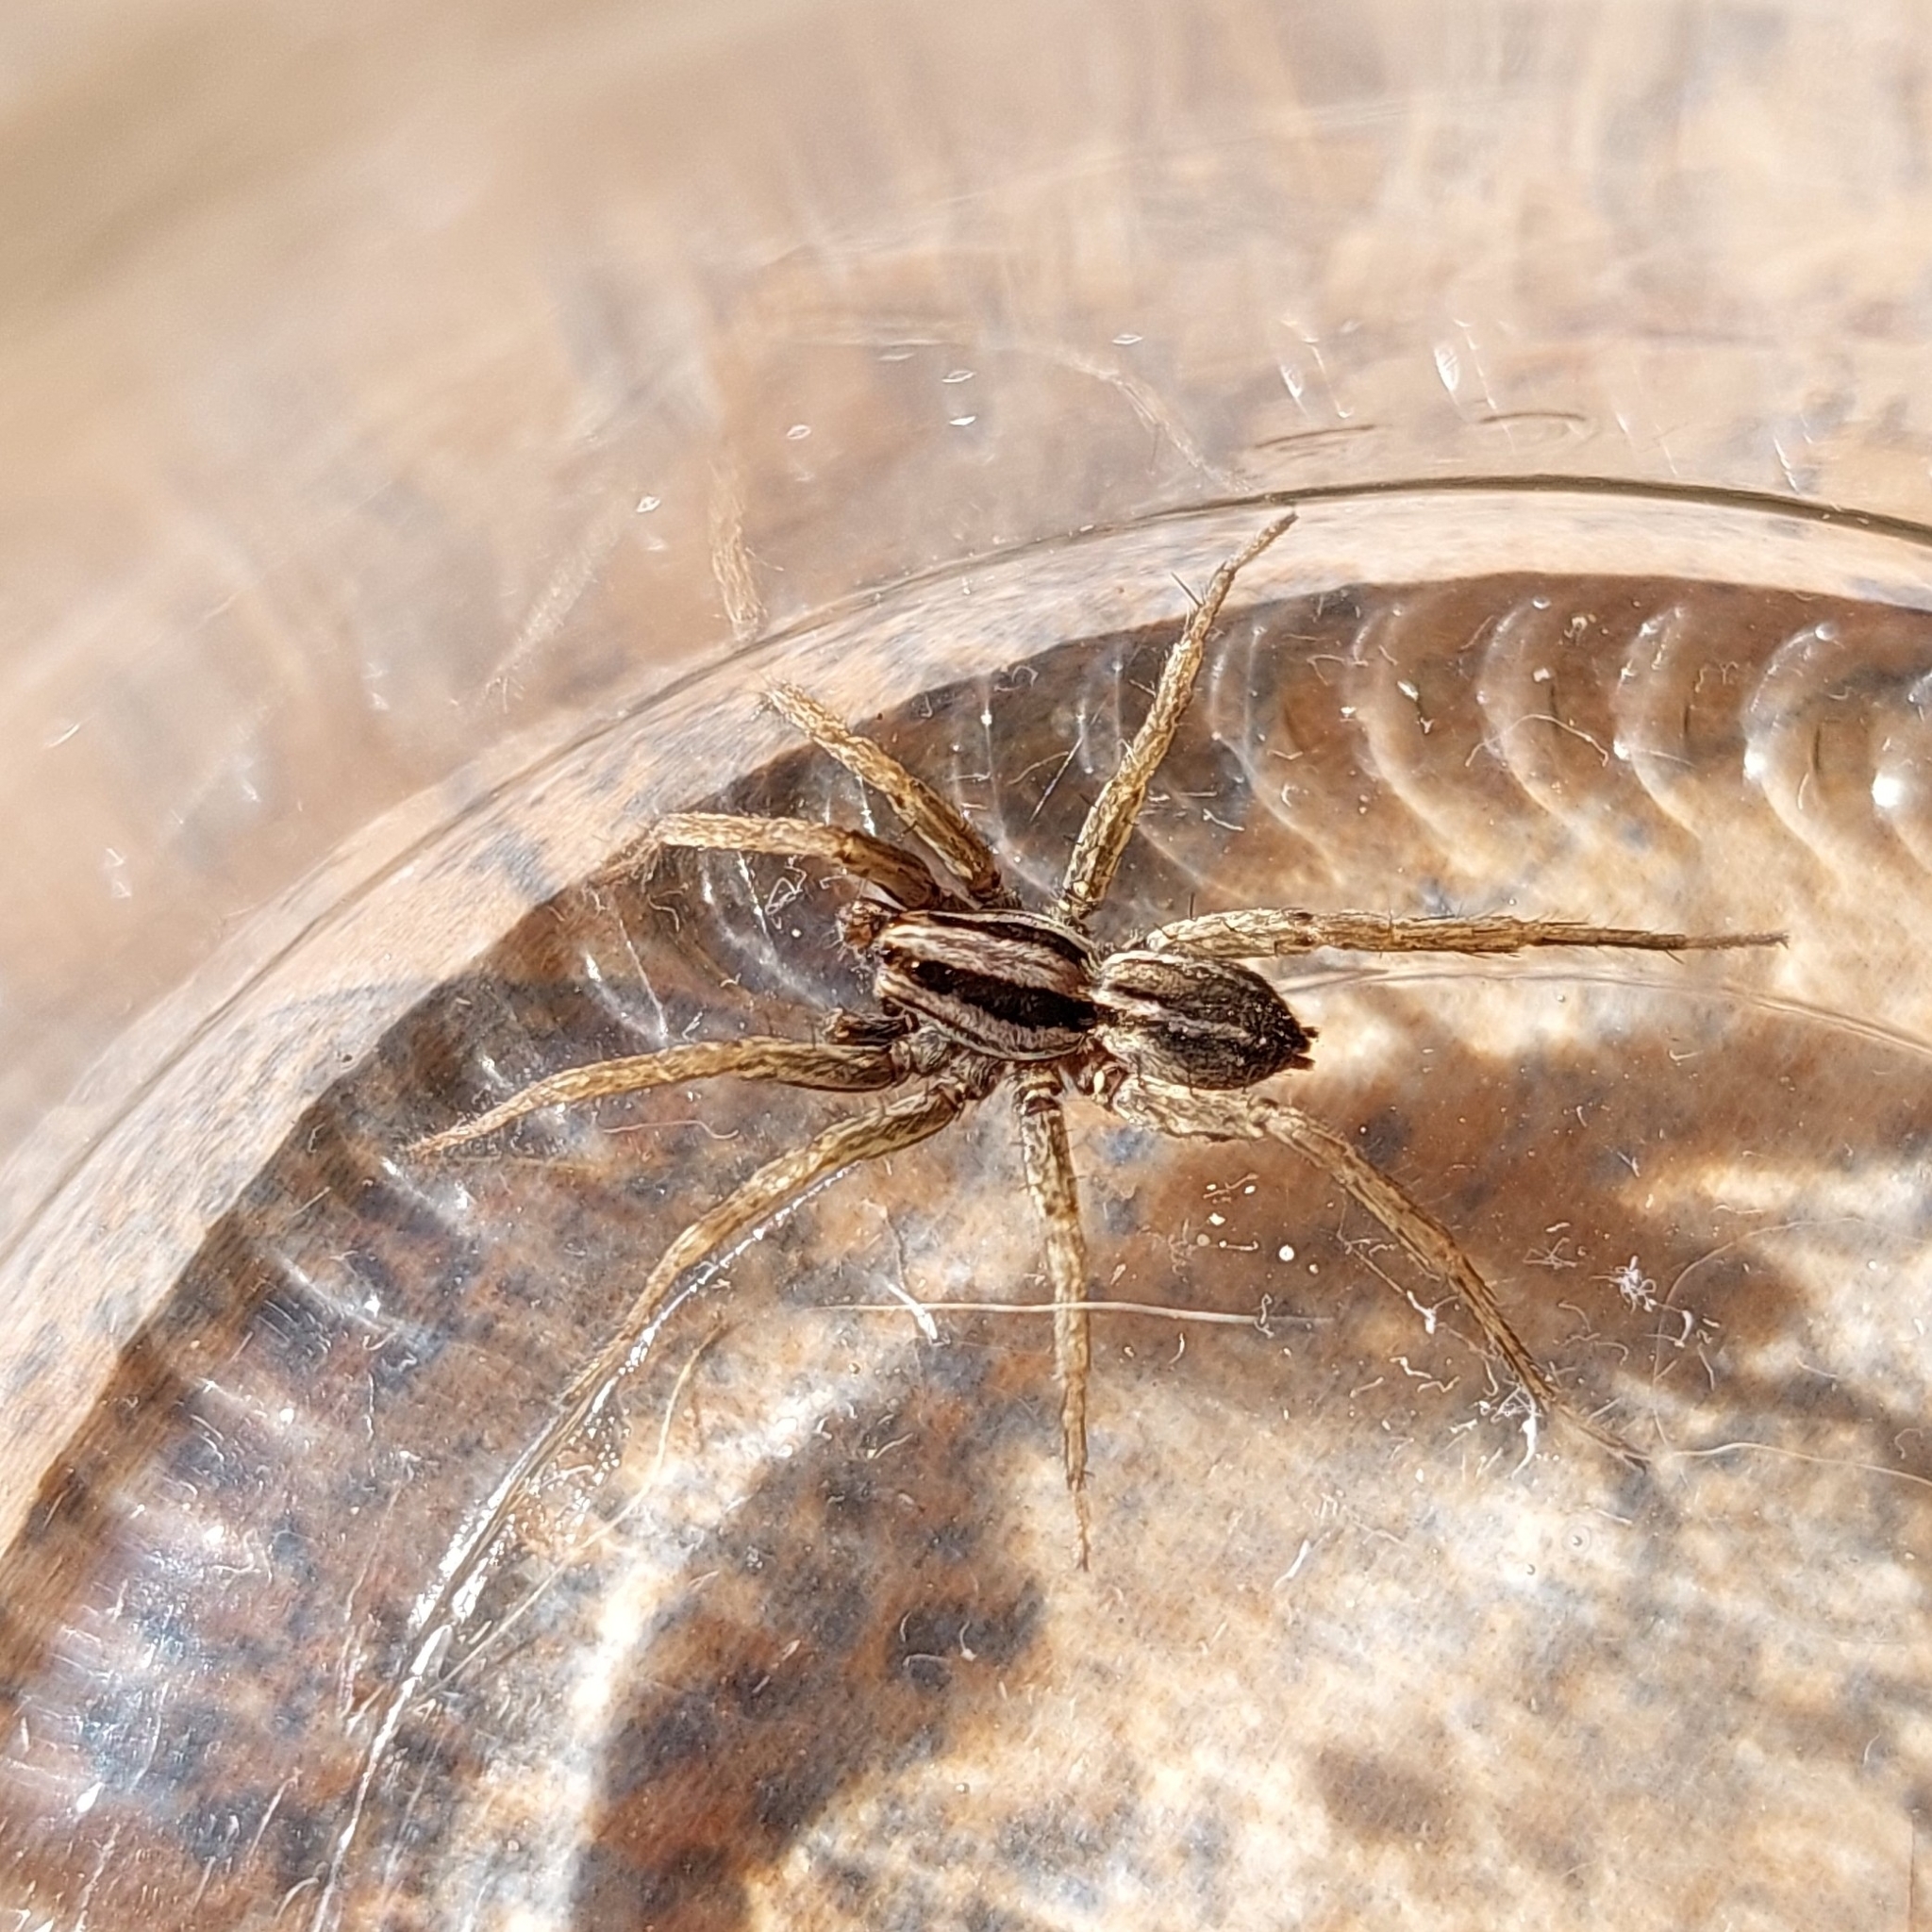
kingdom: Animalia
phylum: Arthropoda
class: Arachnida
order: Araneae
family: Lycosidae
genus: Hogna
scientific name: Hogna bivittata
